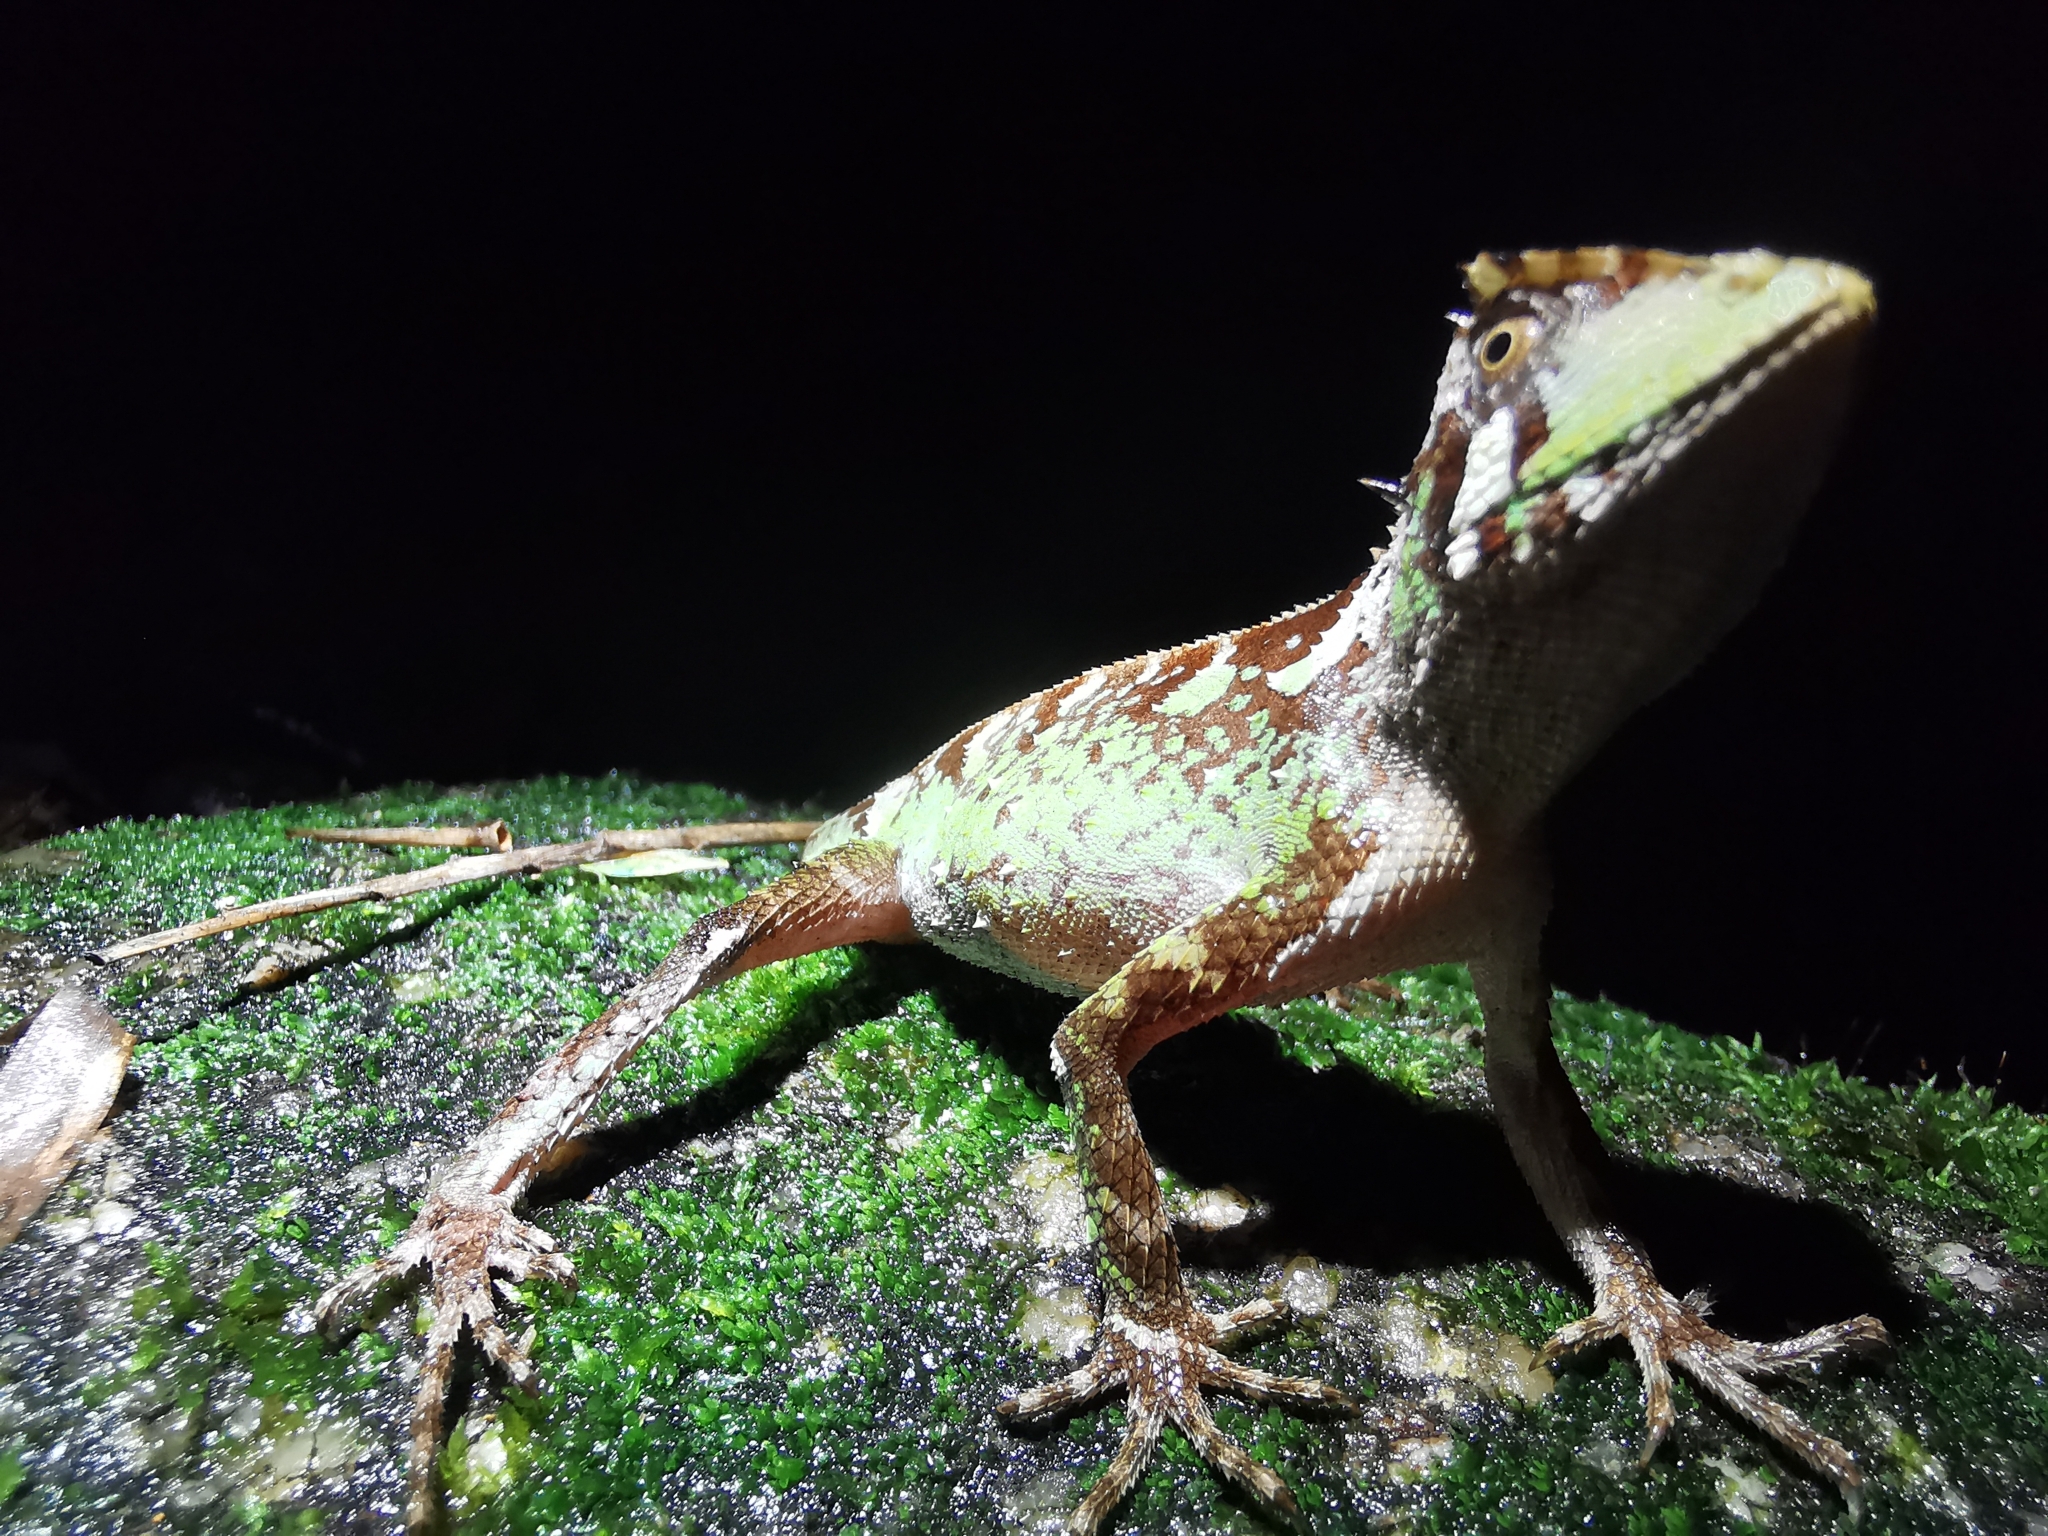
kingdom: Animalia
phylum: Chordata
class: Squamata
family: Agamidae
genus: Acanthosaura
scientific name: Acanthosaura coronata
